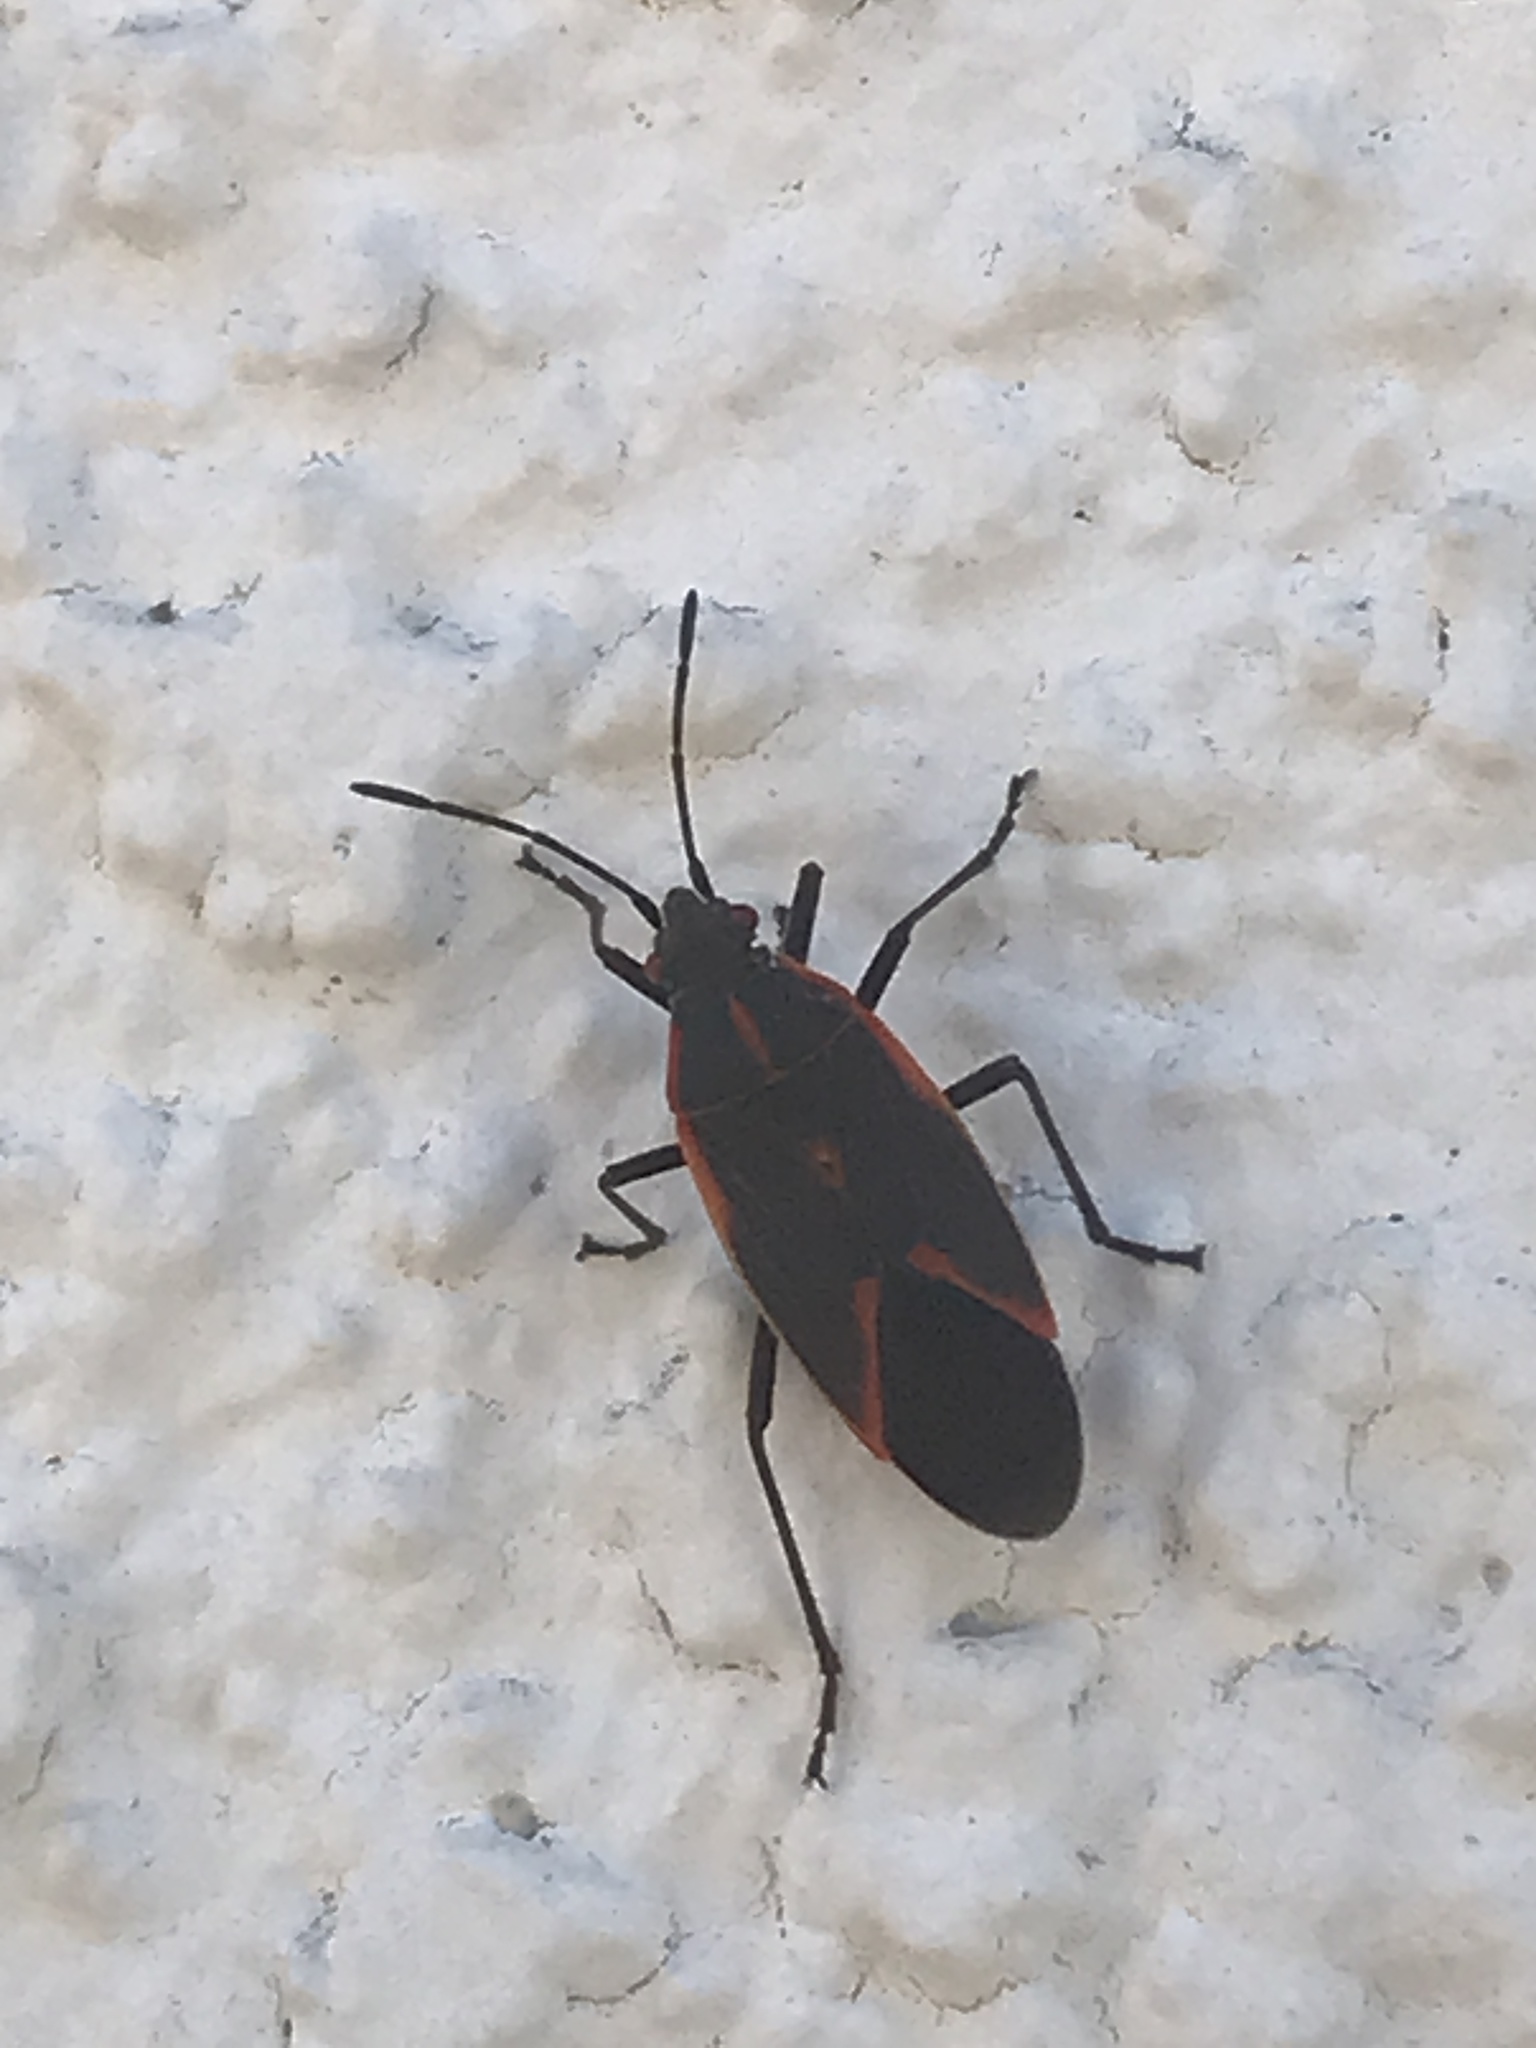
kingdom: Animalia
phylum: Arthropoda
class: Insecta
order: Hemiptera
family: Rhopalidae
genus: Boisea
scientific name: Boisea trivittata
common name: Boxelder bug
